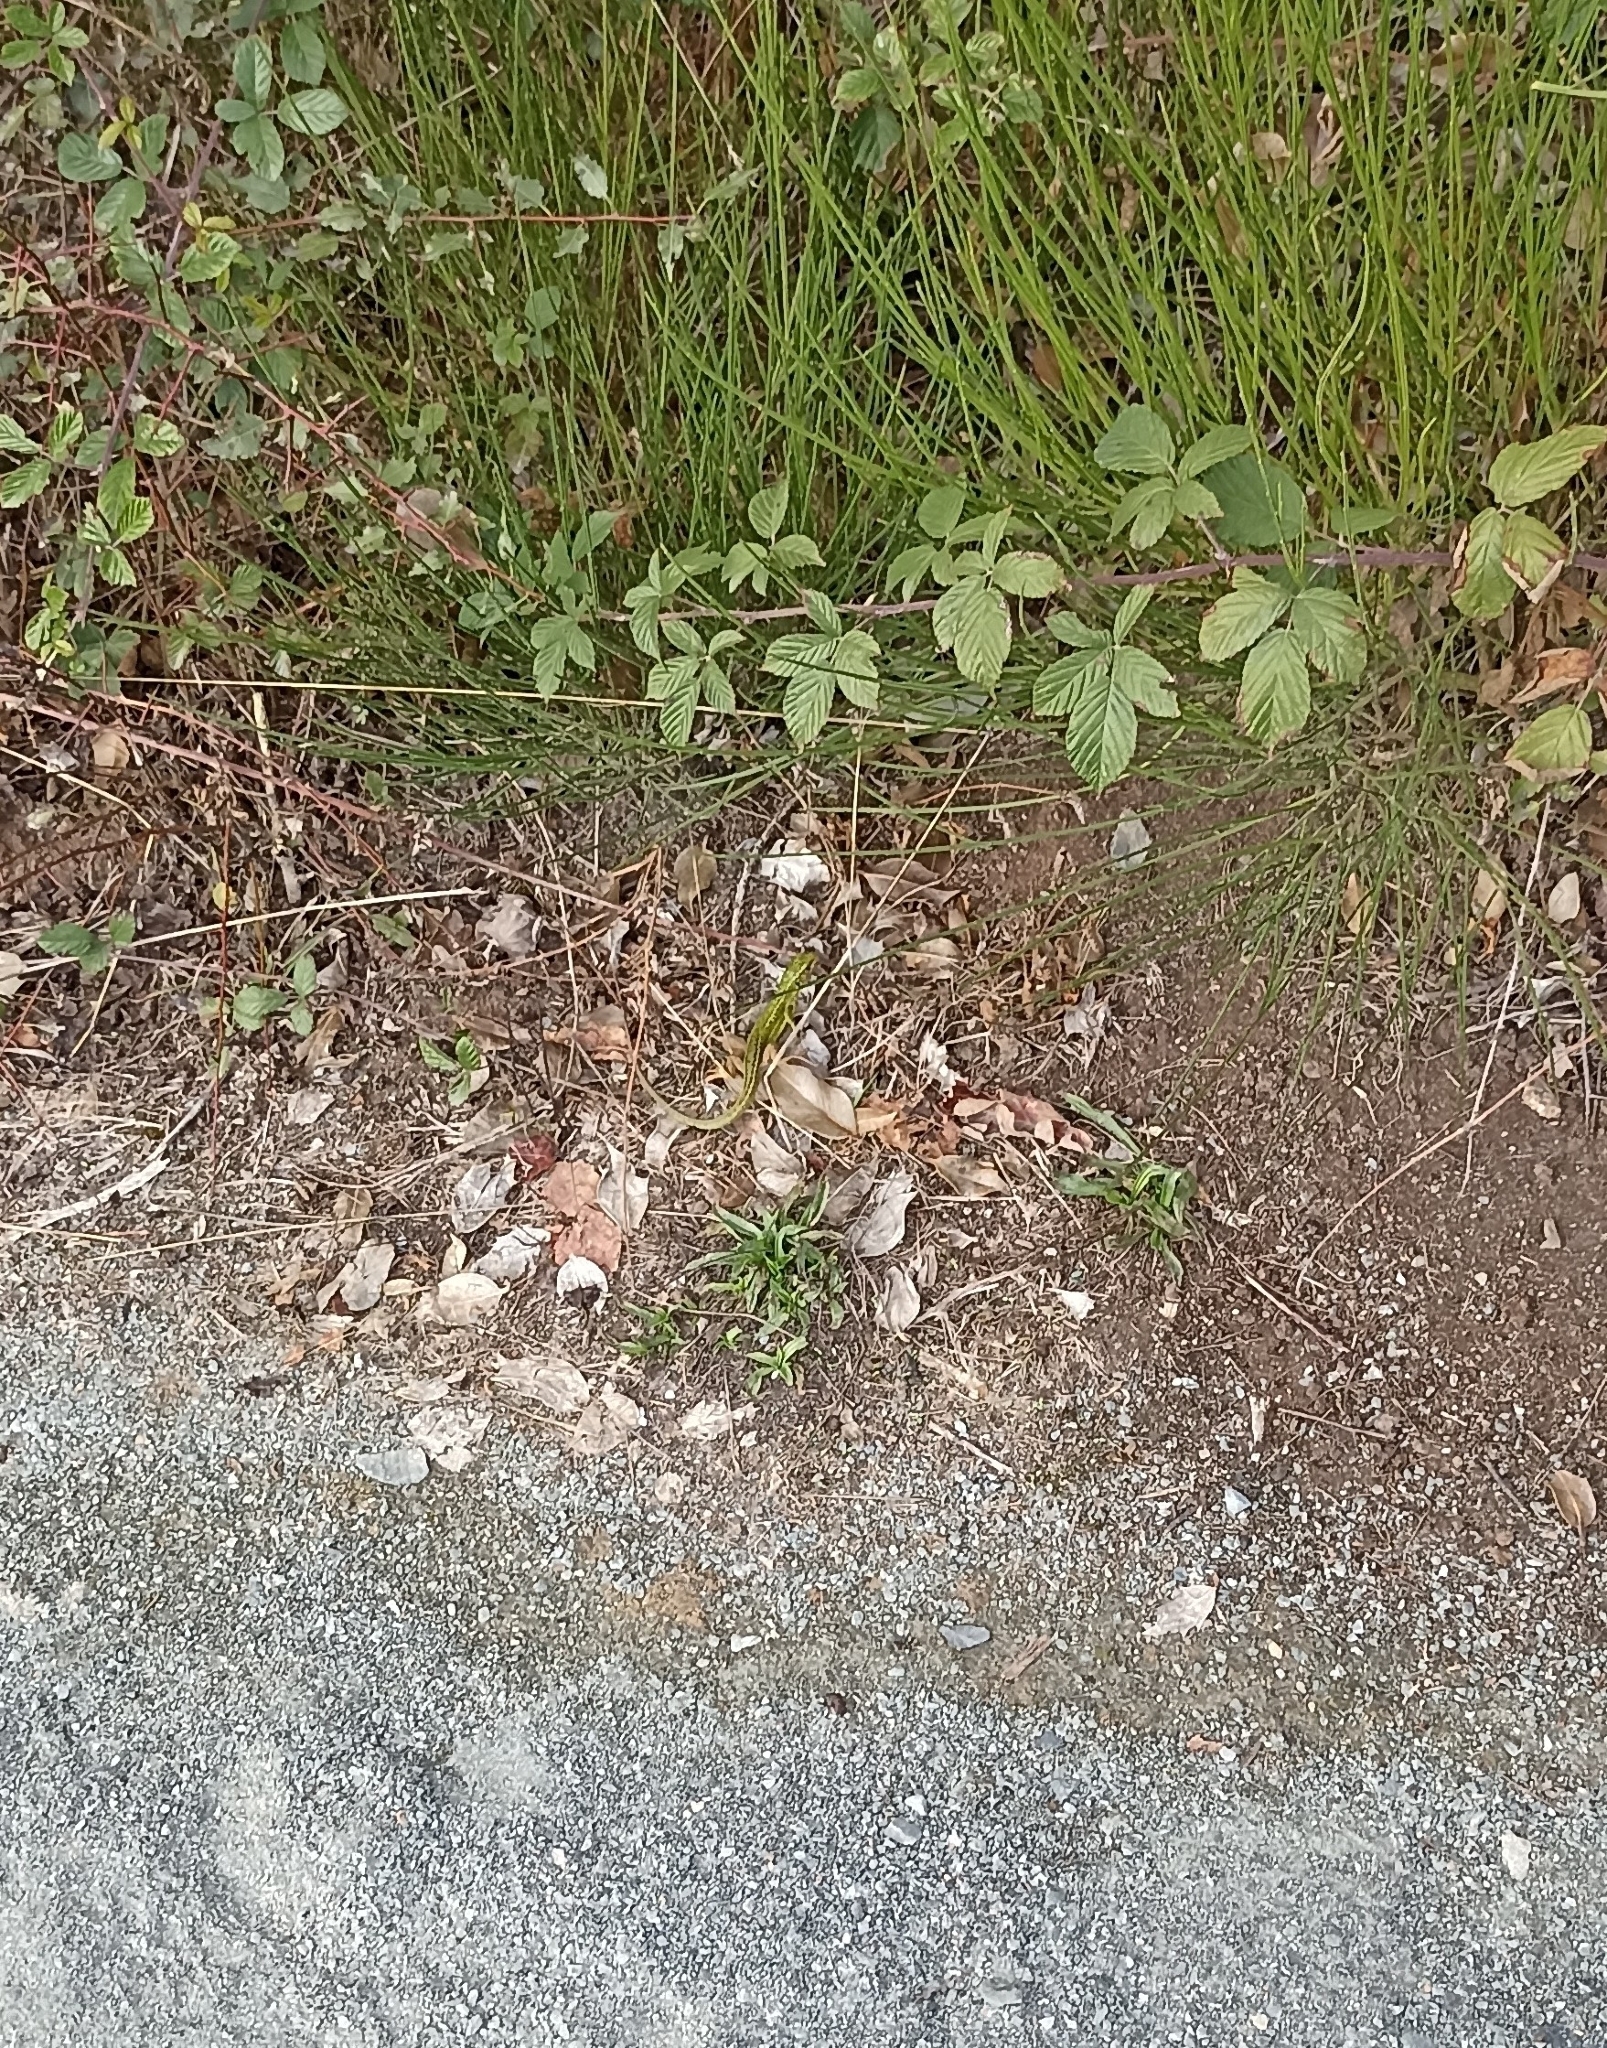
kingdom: Animalia
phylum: Chordata
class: Squamata
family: Lacertidae
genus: Lacerta
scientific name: Lacerta bilineata
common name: Western green lizard
